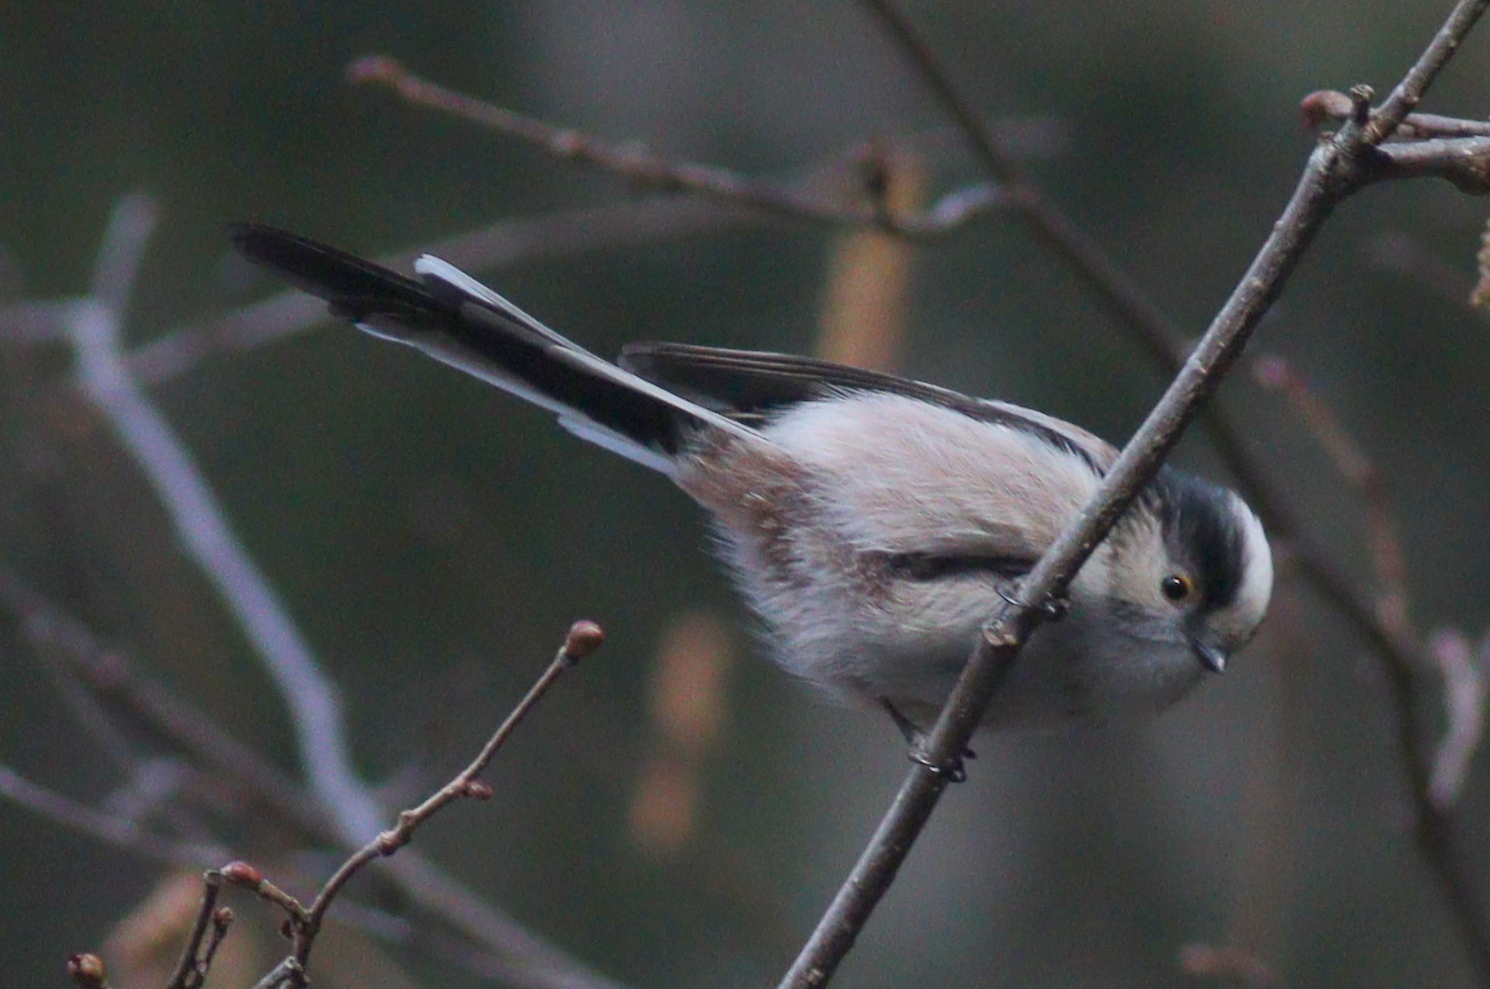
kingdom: Animalia
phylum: Chordata
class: Aves
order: Passeriformes
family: Aegithalidae
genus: Aegithalos
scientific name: Aegithalos caudatus
